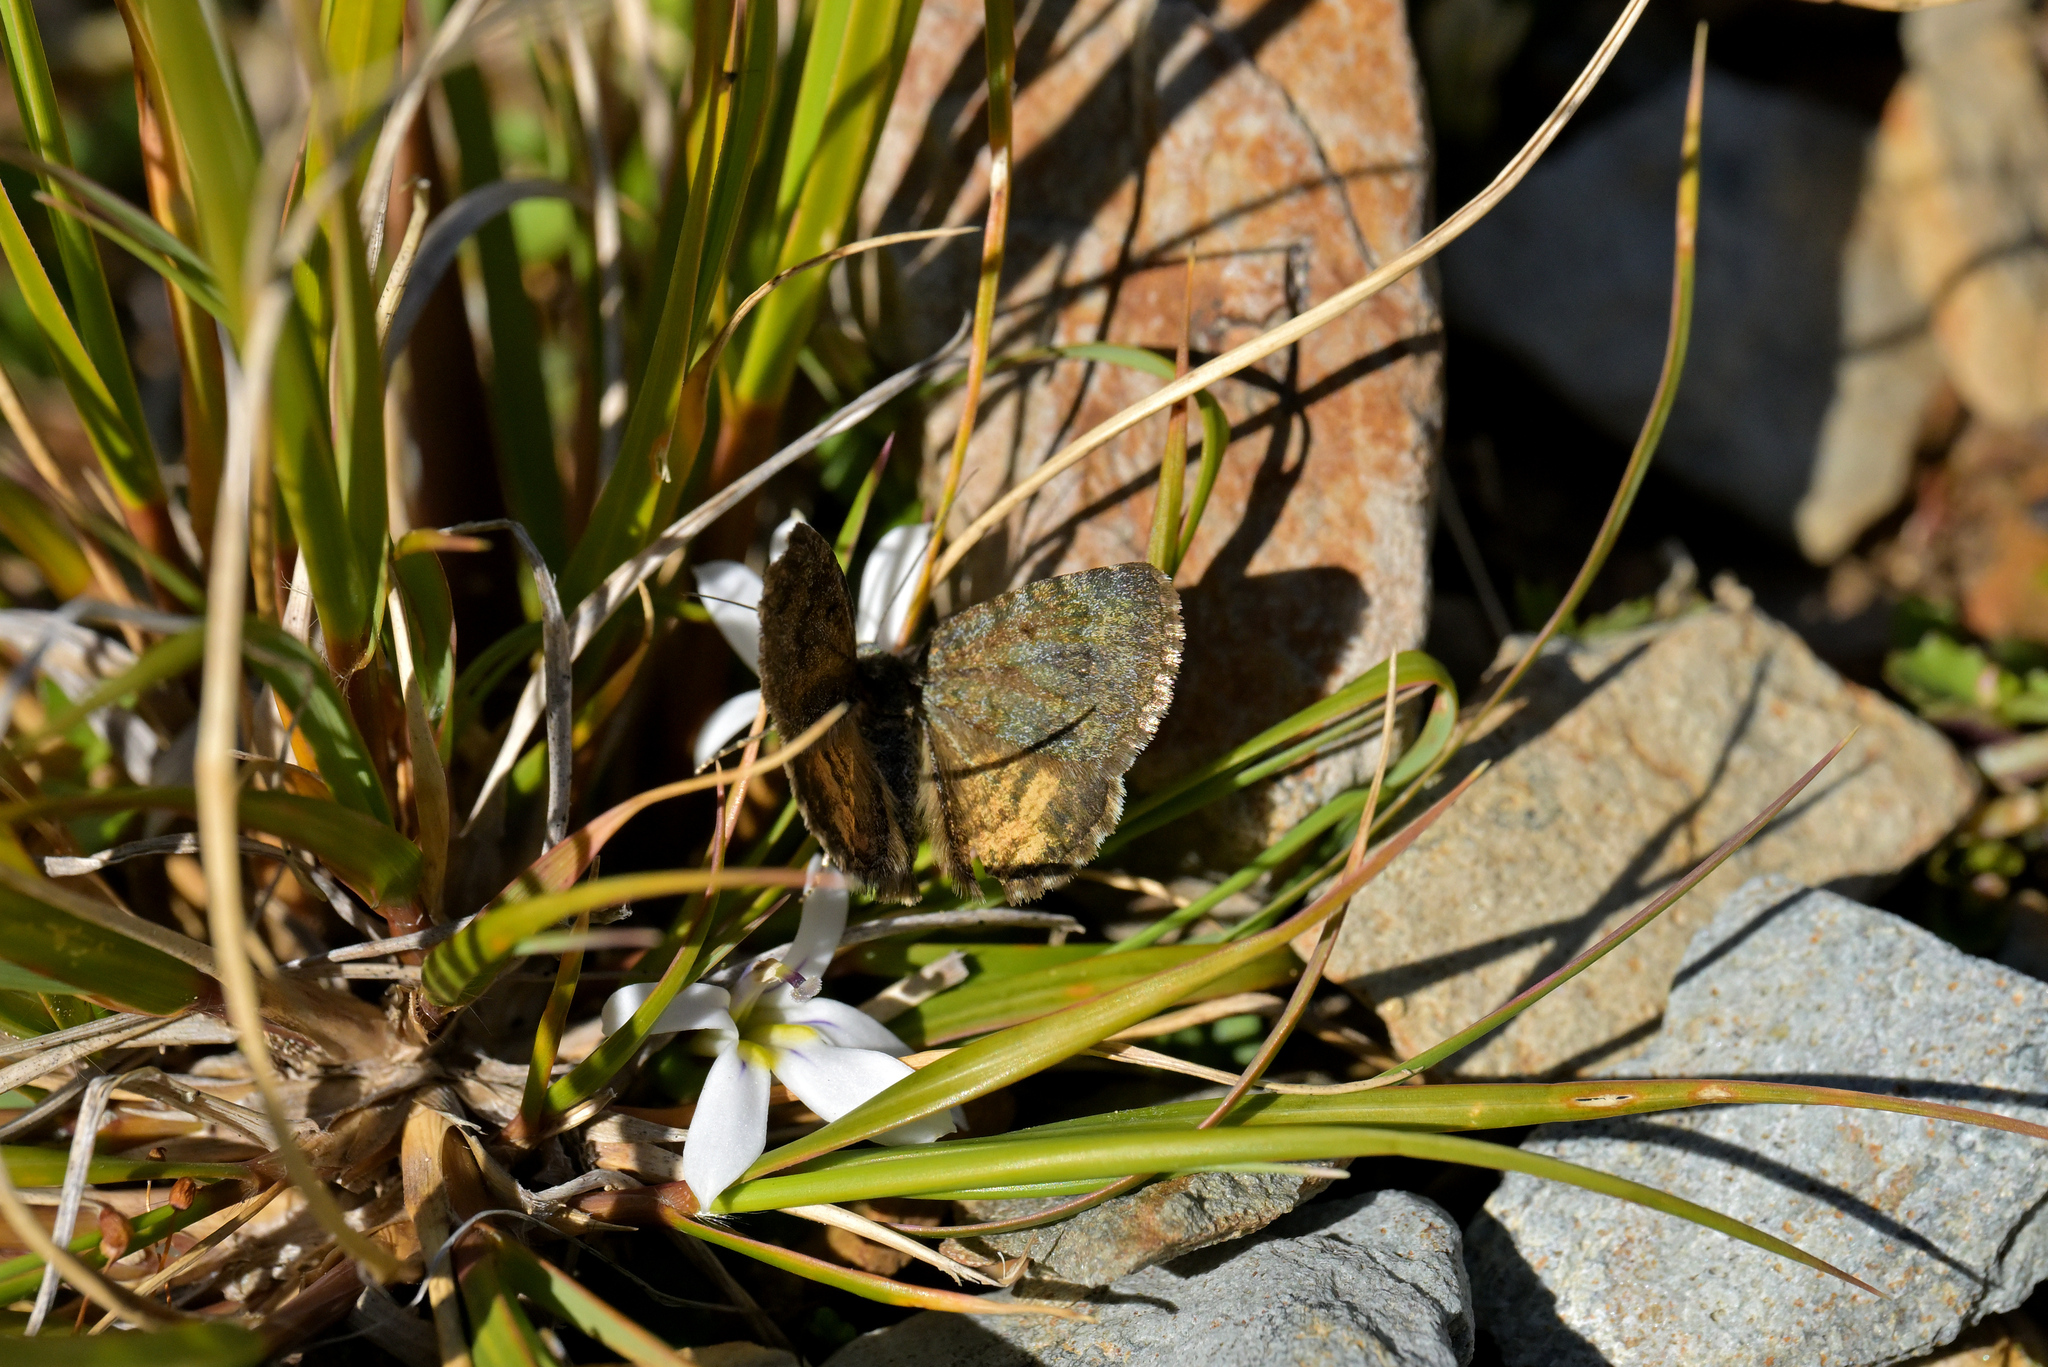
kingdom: Animalia
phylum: Arthropoda
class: Insecta
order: Lepidoptera
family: Geometridae
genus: Dasyuris
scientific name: Dasyuris anceps
